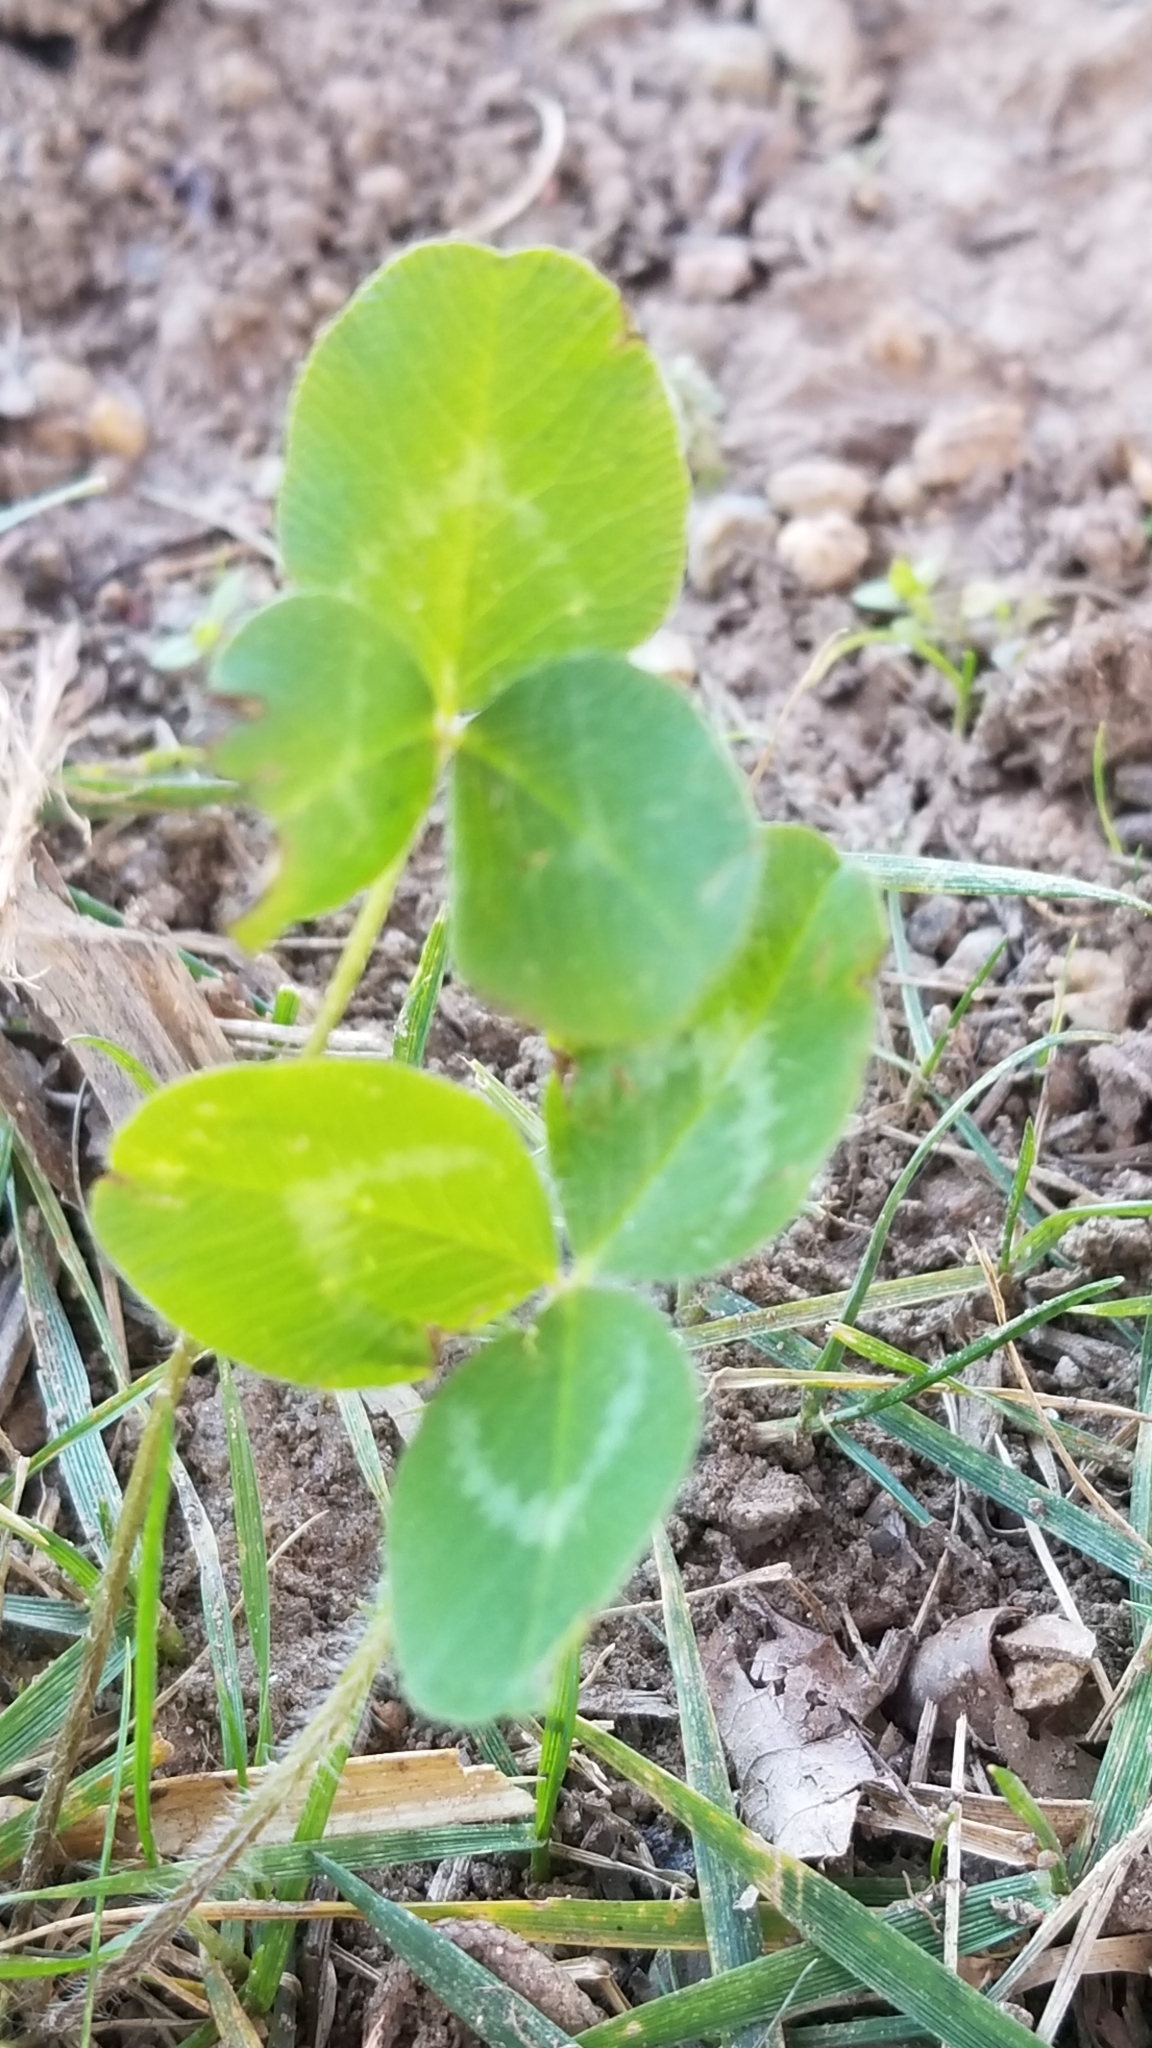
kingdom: Plantae
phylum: Tracheophyta
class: Magnoliopsida
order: Fabales
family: Fabaceae
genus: Trifolium
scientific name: Trifolium pratense
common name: Red clover
